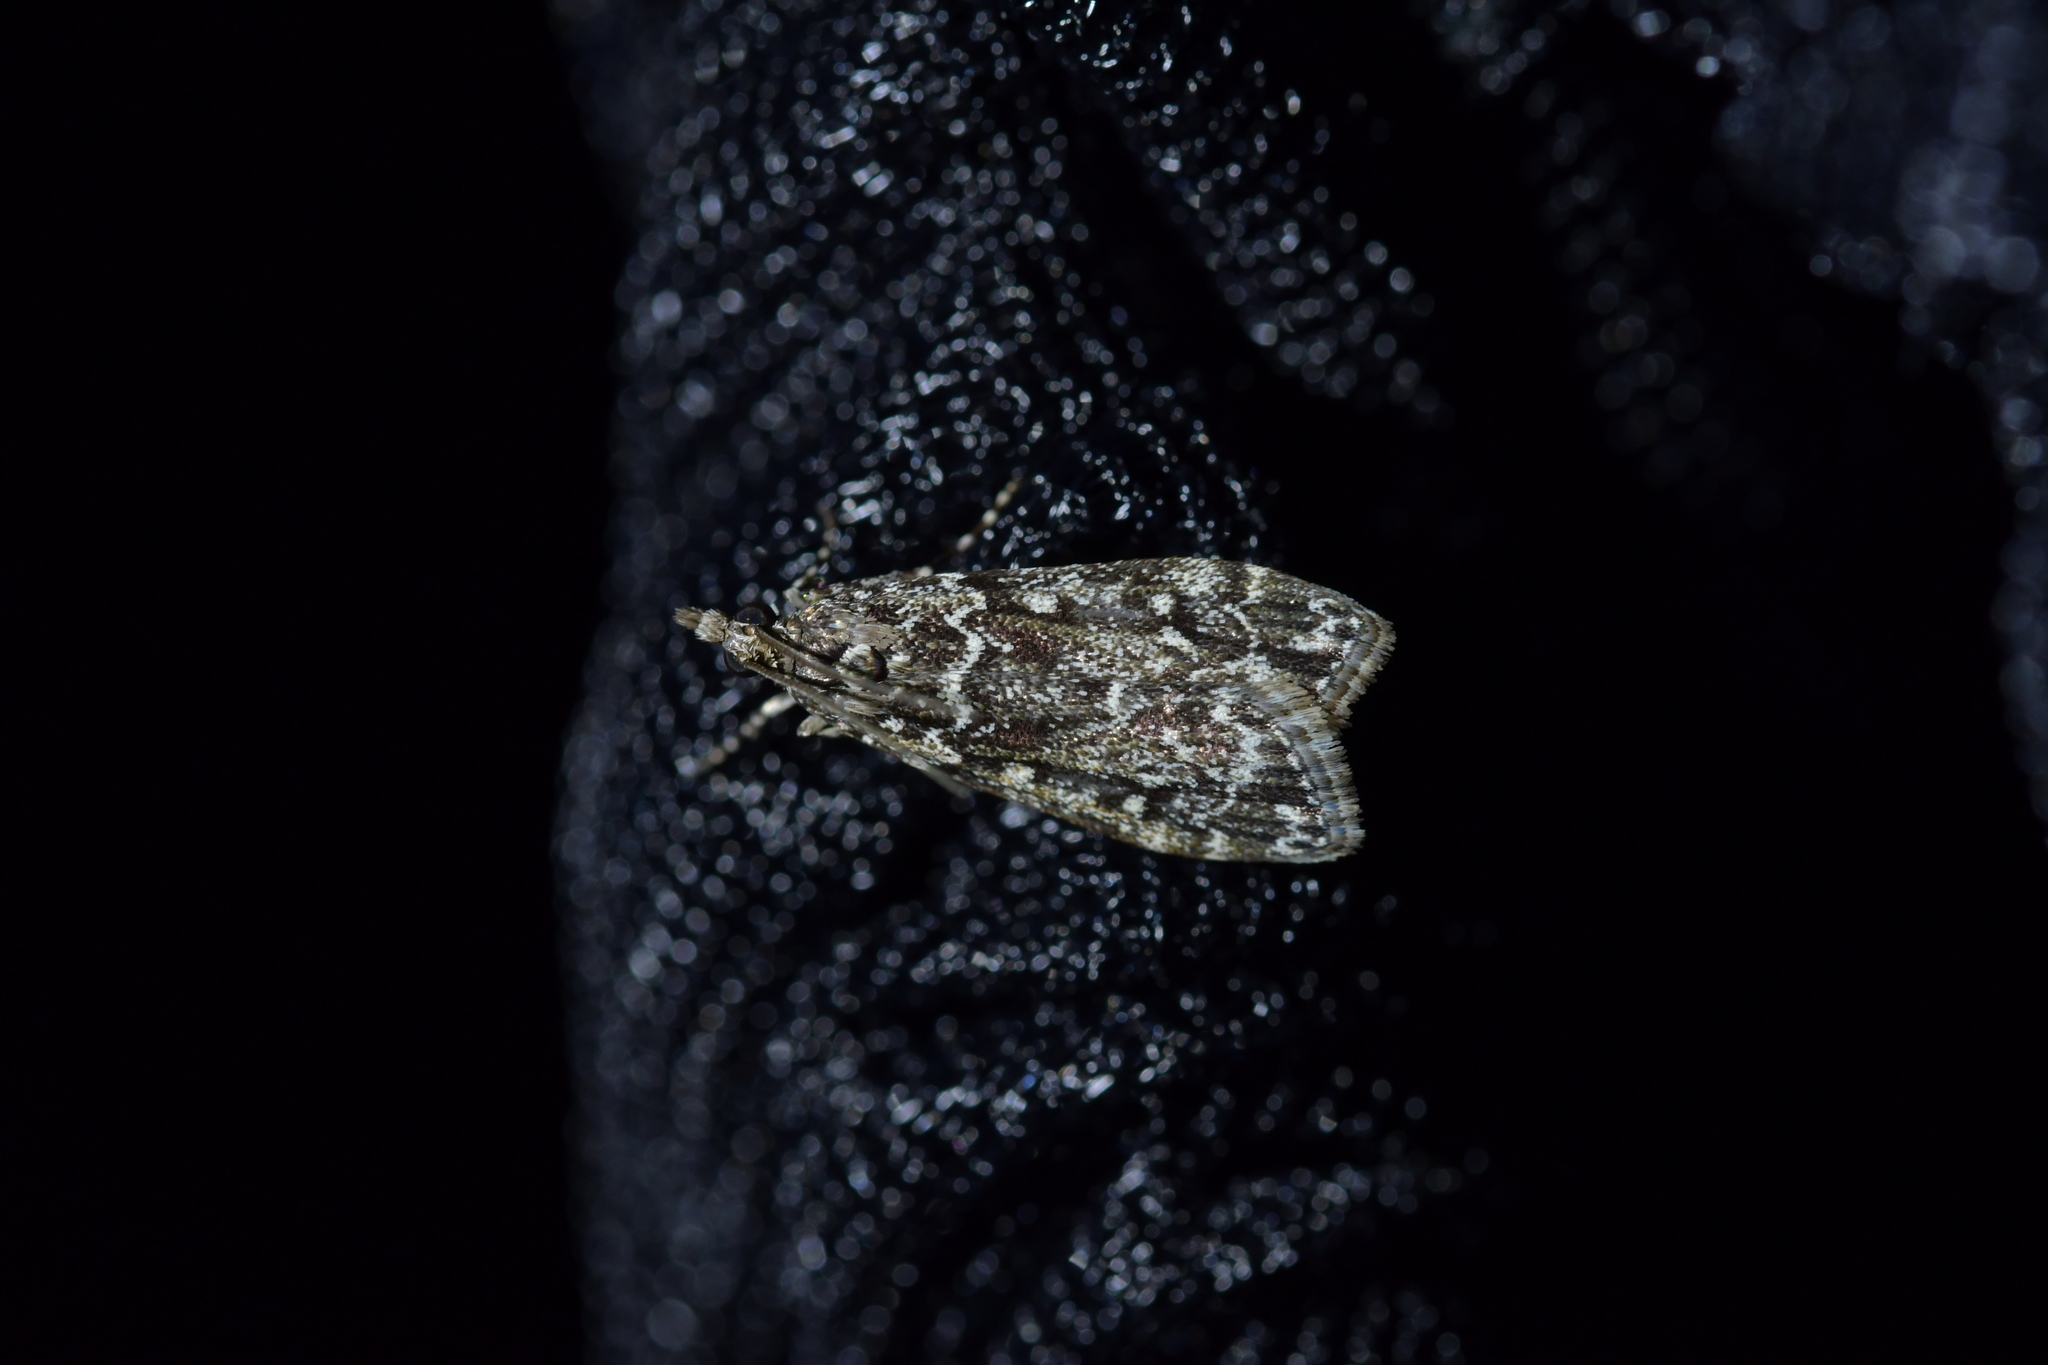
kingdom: Animalia
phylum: Arthropoda
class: Insecta
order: Lepidoptera
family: Crambidae
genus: Eudonia
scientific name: Eudonia philerga
